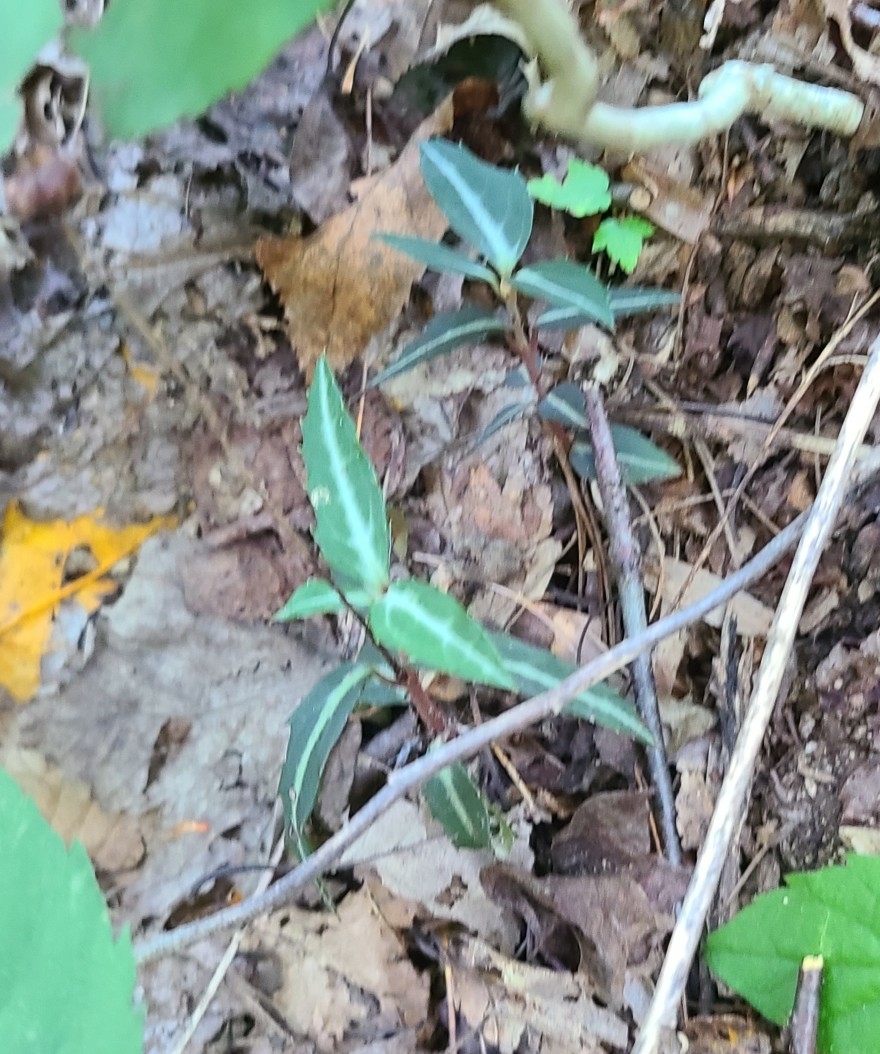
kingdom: Plantae
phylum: Tracheophyta
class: Magnoliopsida
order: Ericales
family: Ericaceae
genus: Chimaphila
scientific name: Chimaphila maculata
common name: Spotted pipsissewa
